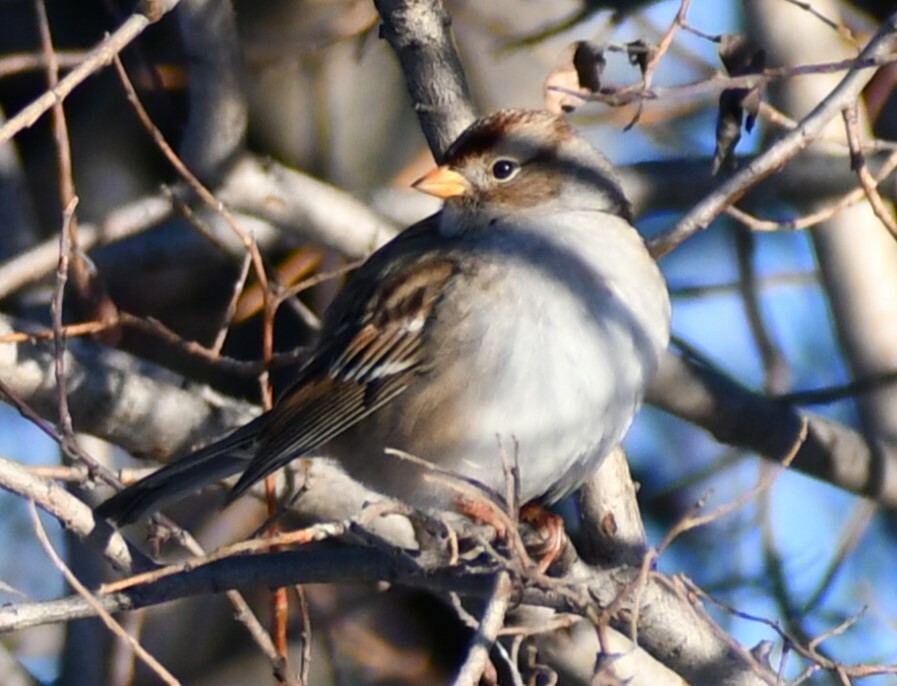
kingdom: Animalia
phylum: Chordata
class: Aves
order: Passeriformes
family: Passerellidae
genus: Zonotrichia
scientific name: Zonotrichia leucophrys
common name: White-crowned sparrow
